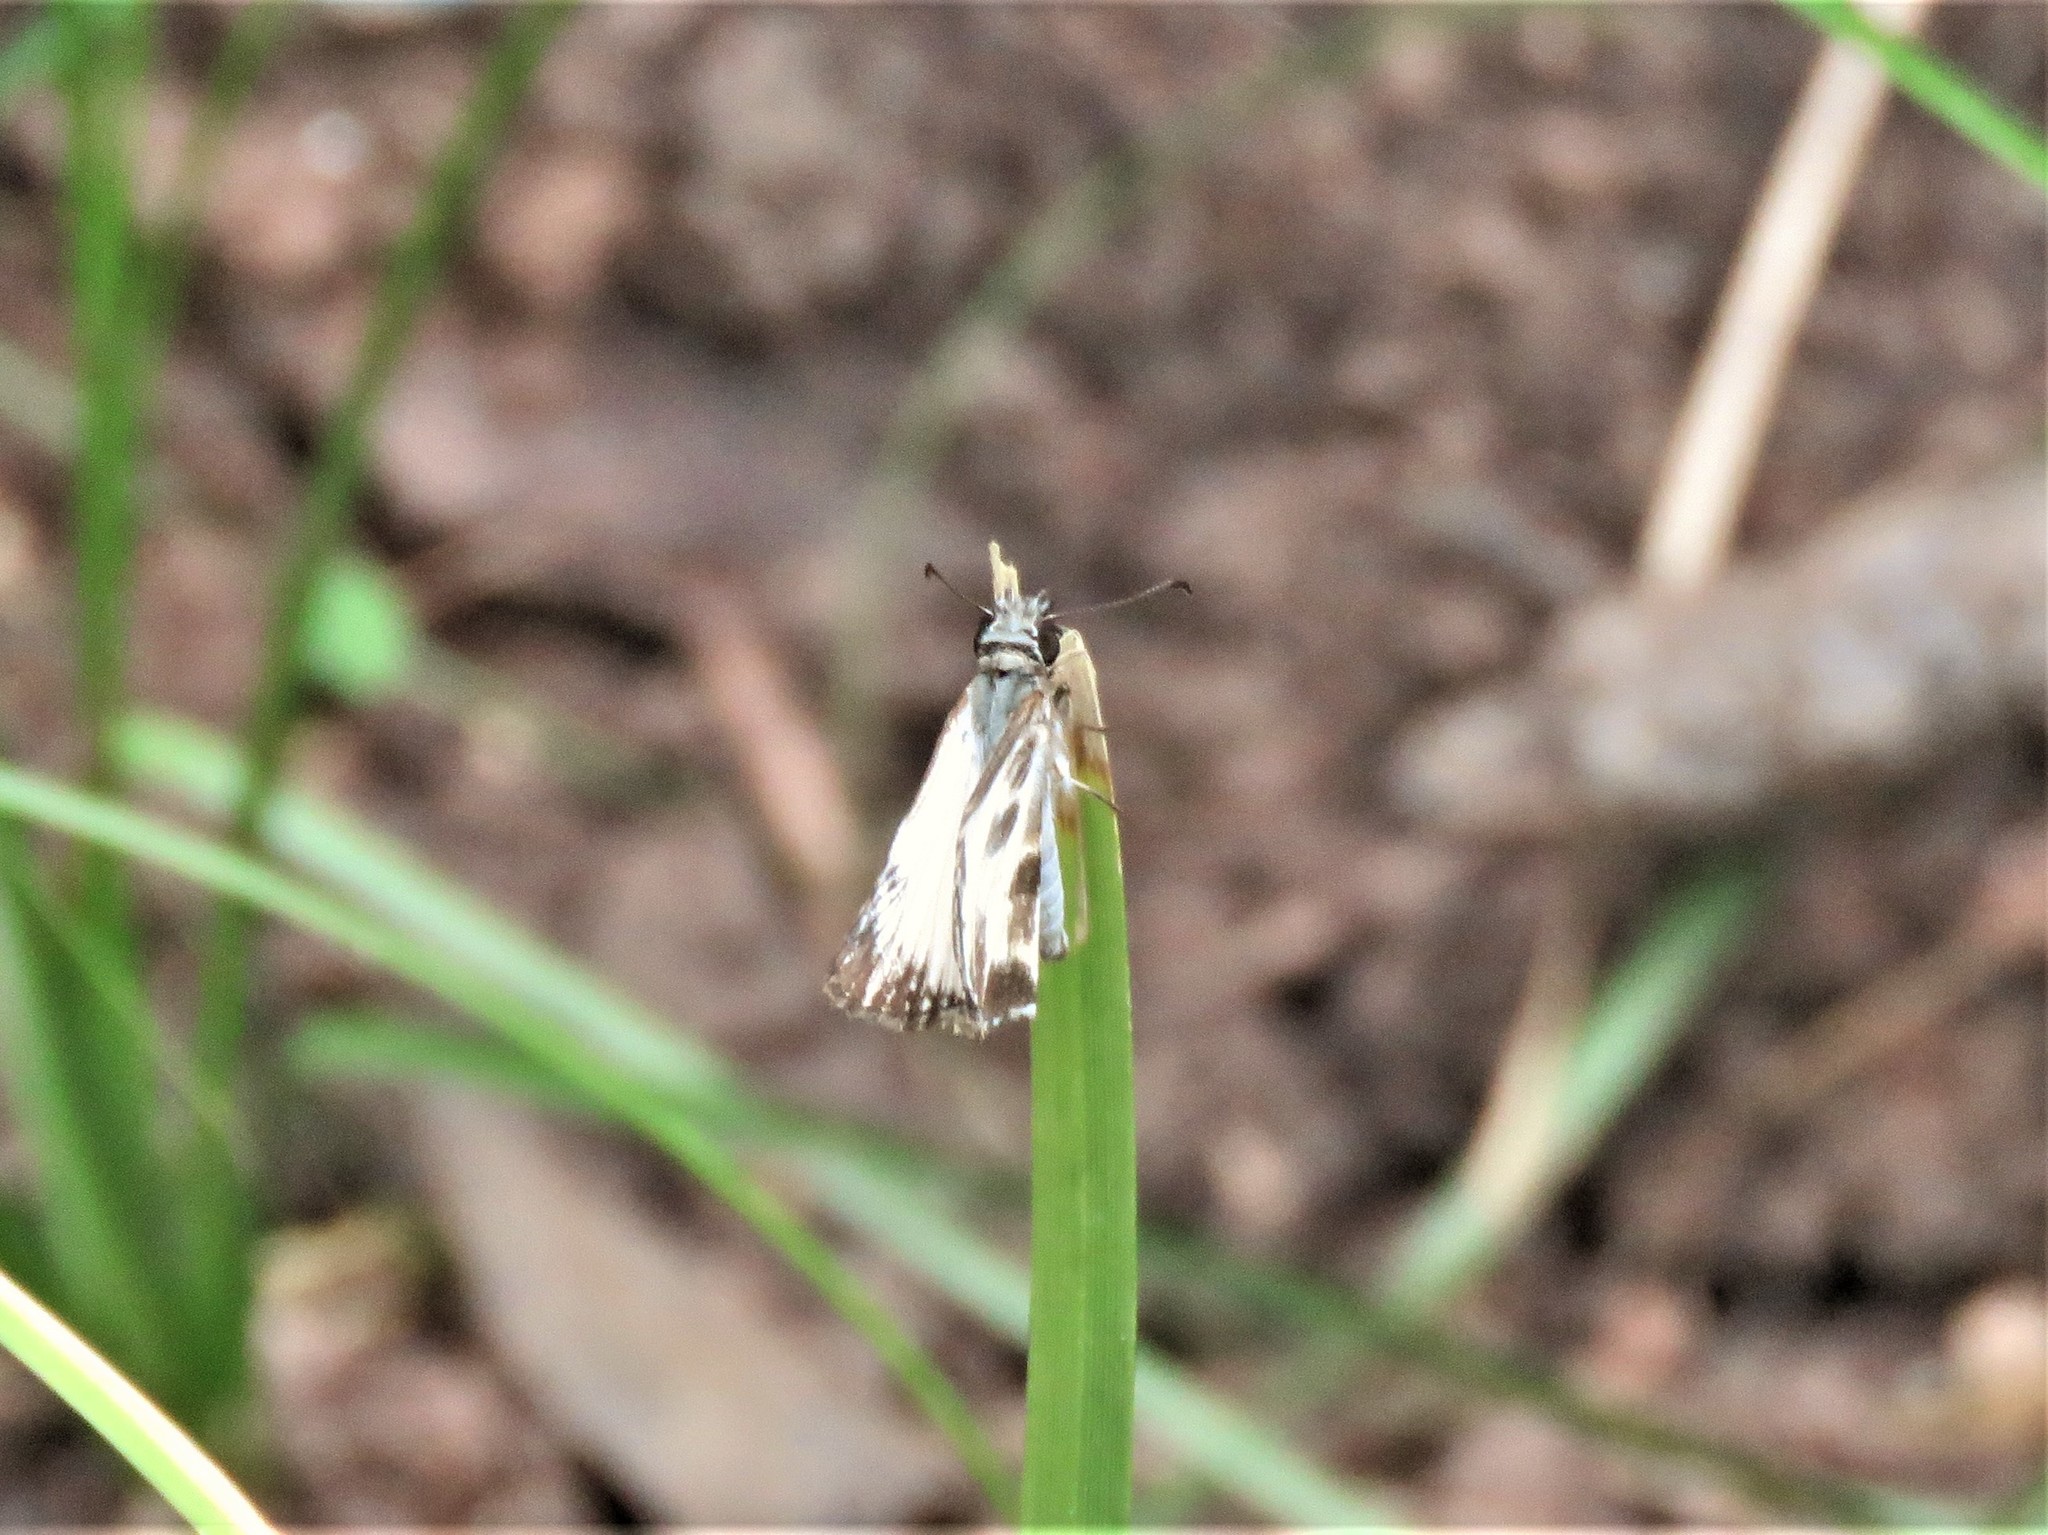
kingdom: Animalia
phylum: Arthropoda
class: Insecta
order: Lepidoptera
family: Hesperiidae
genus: Heliopetes
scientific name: Heliopetes macaira
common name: Turk's-cap white-skipper
